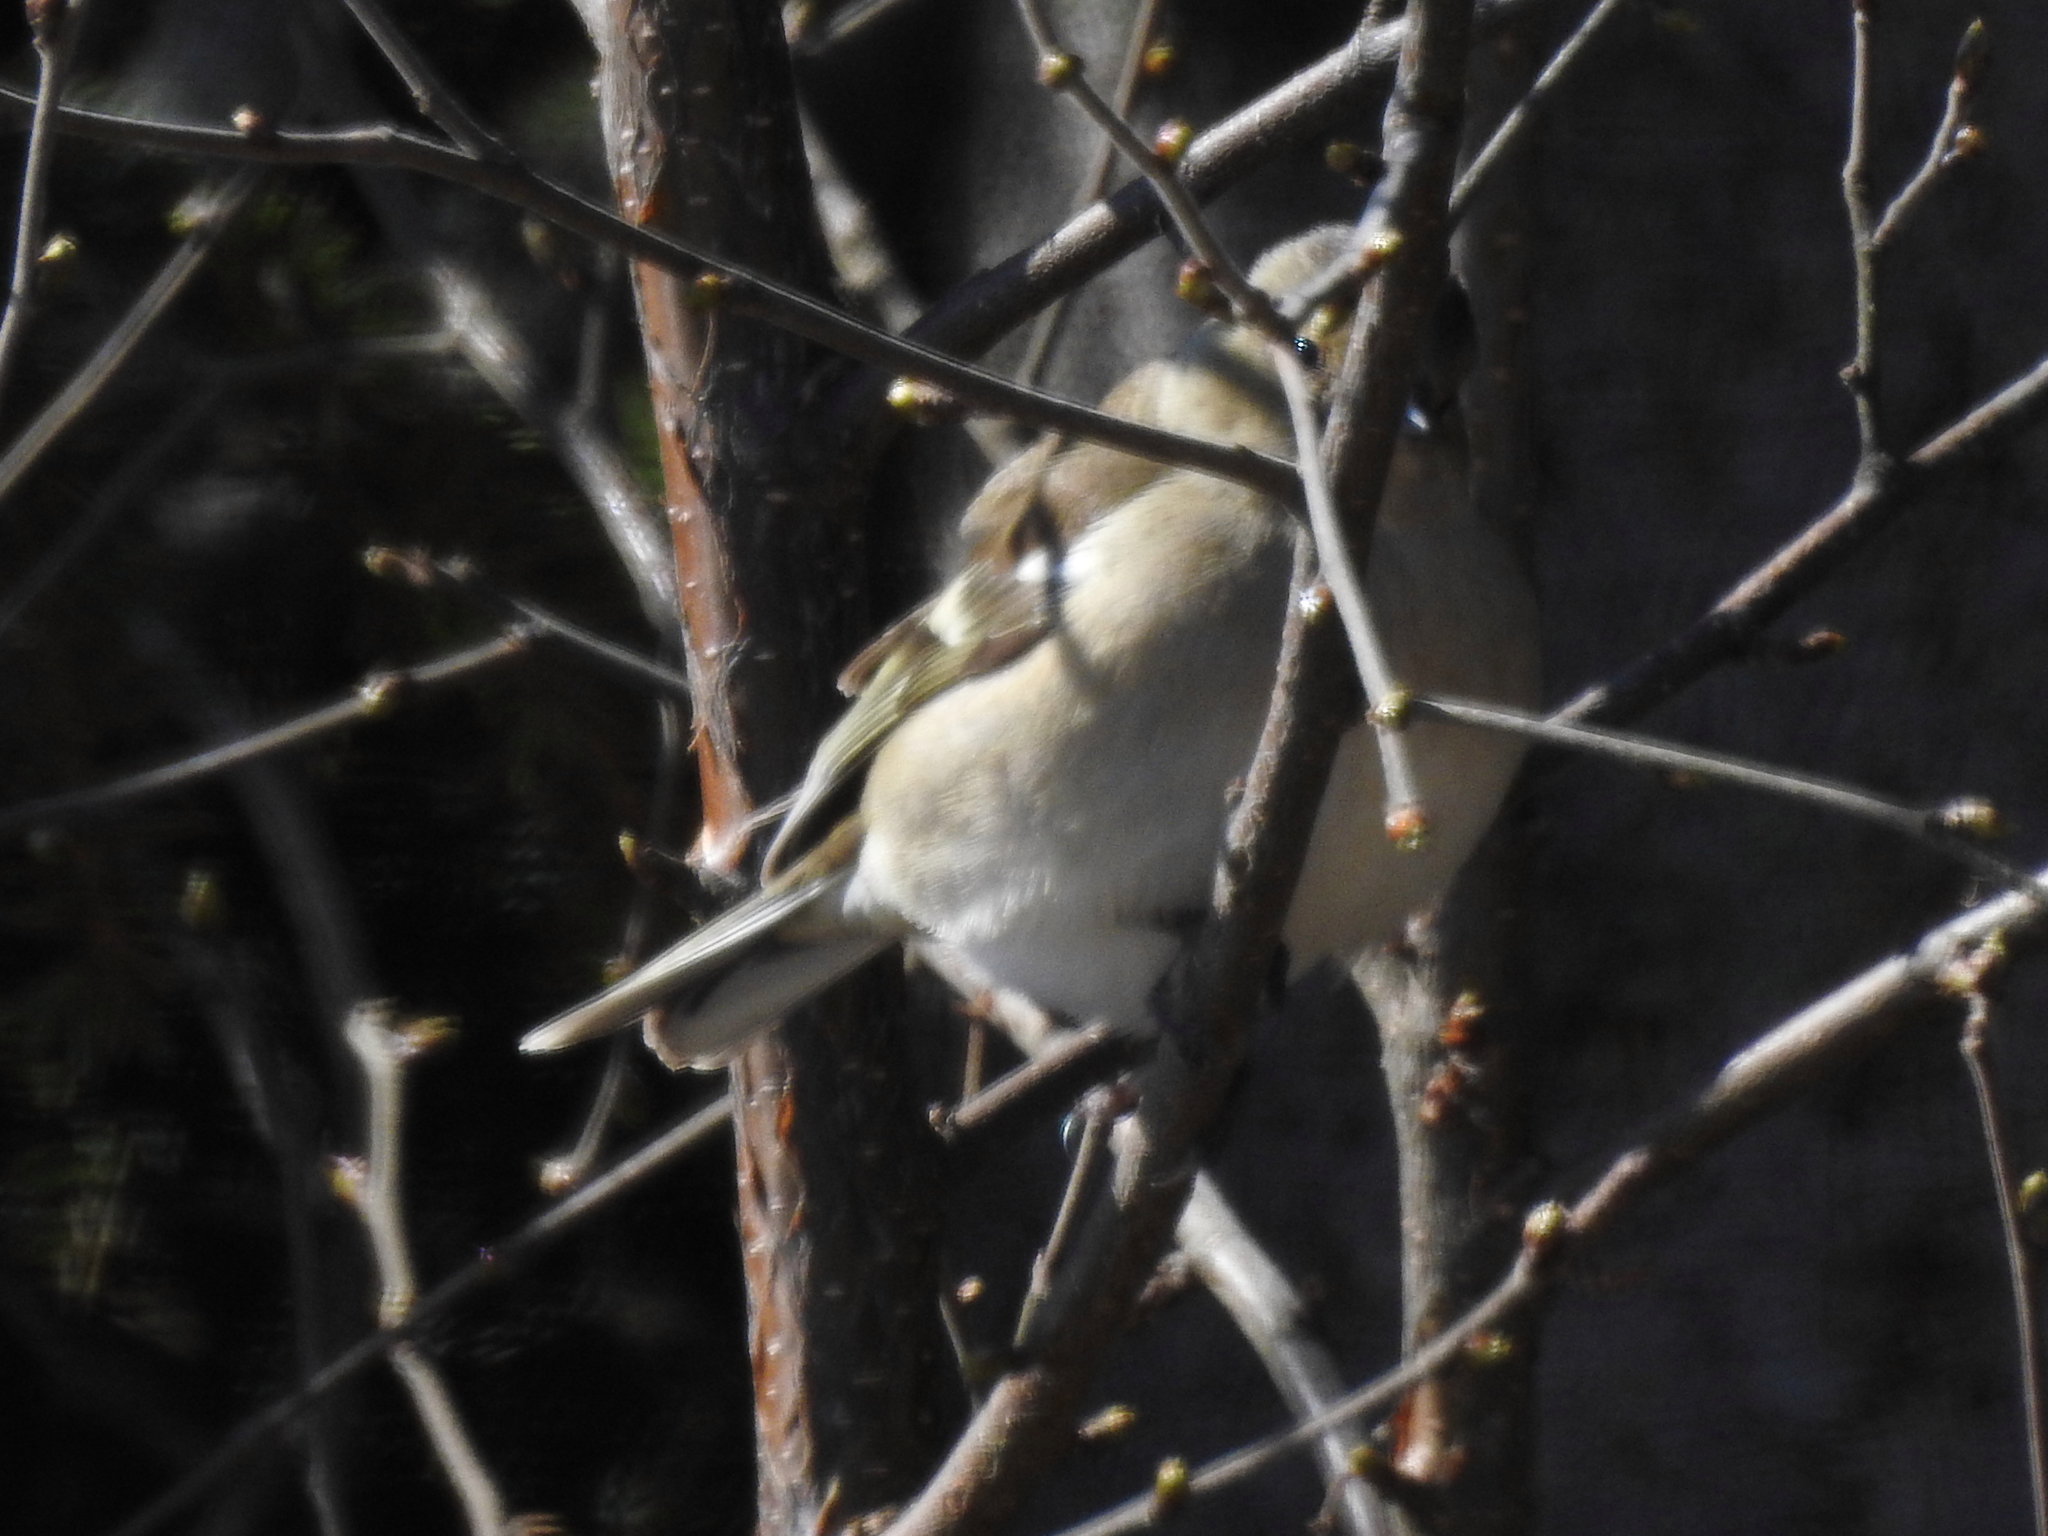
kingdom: Animalia
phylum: Chordata
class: Aves
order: Passeriformes
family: Fringillidae
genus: Fringilla
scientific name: Fringilla coelebs
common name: Common chaffinch
